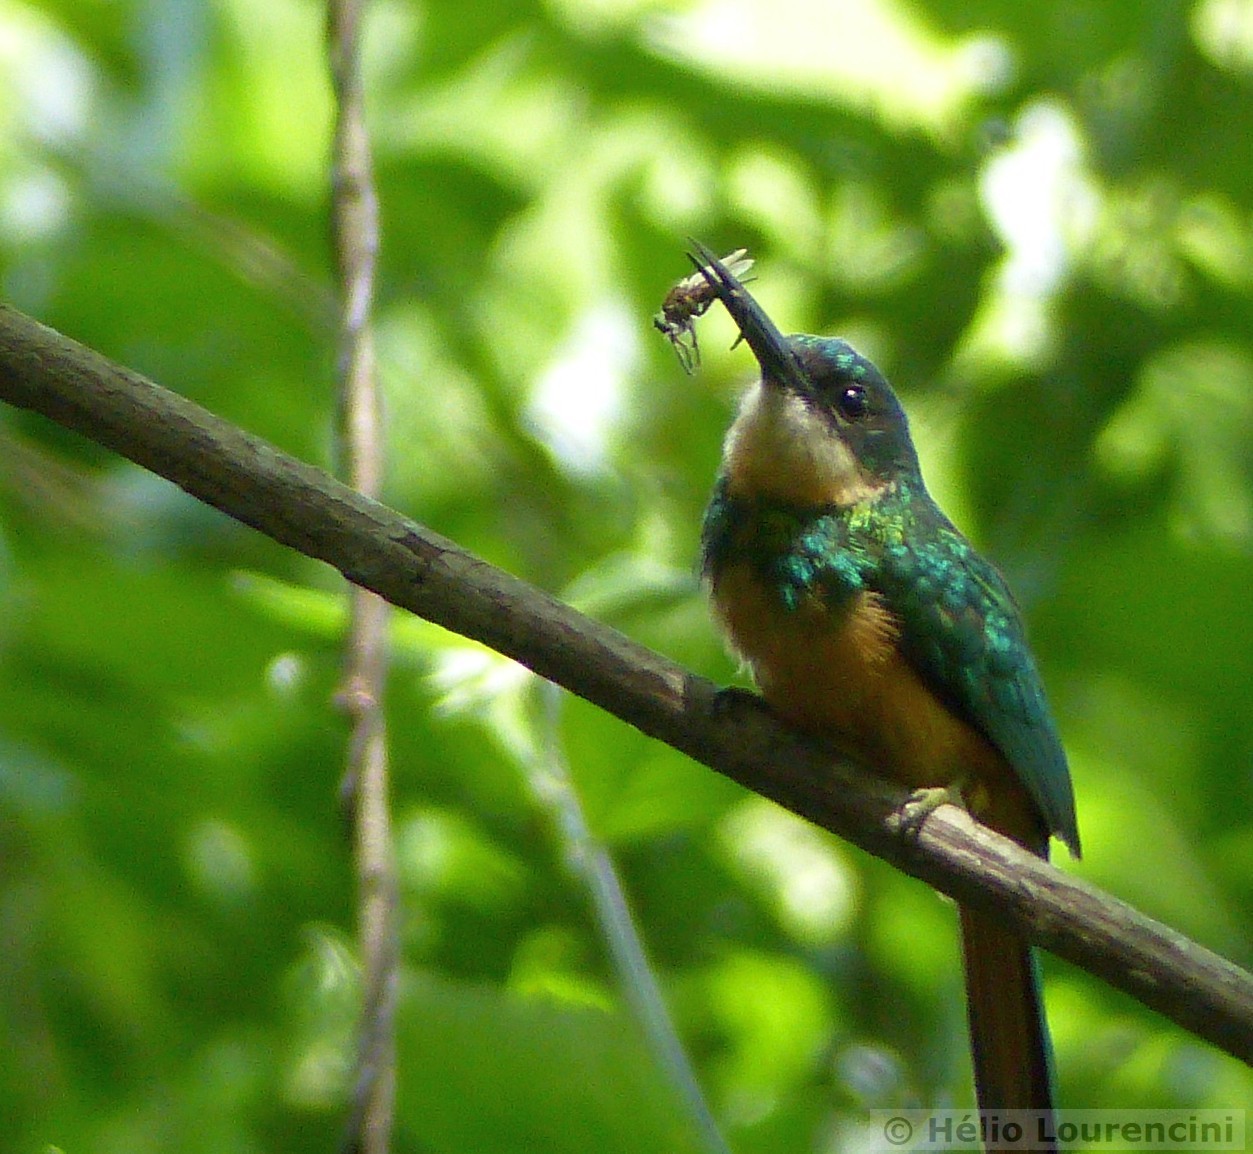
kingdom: Animalia
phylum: Chordata
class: Aves
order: Piciformes
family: Galbulidae
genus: Galbula
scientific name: Galbula ruficauda
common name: Rufous-tailed jacamar
